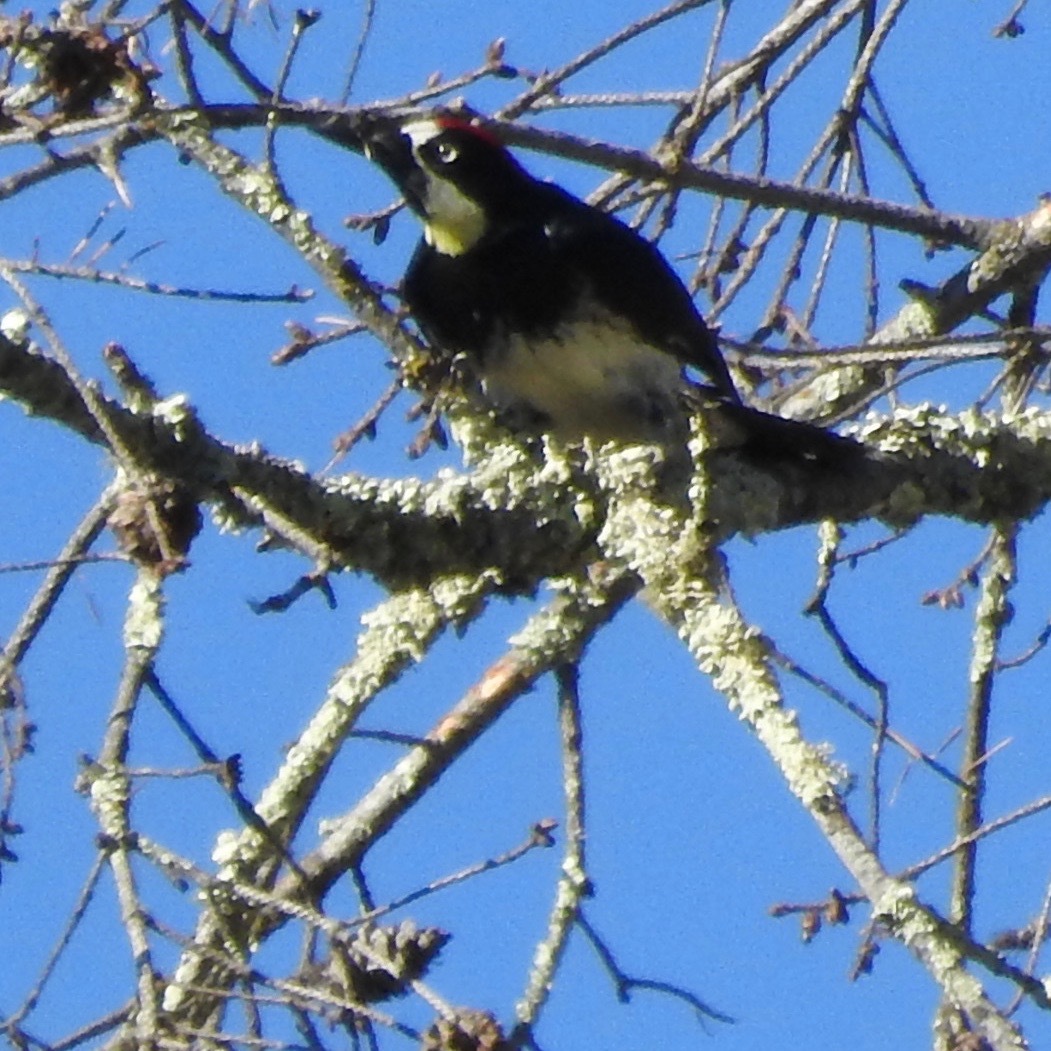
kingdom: Animalia
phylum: Chordata
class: Aves
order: Piciformes
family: Picidae
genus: Melanerpes
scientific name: Melanerpes formicivorus
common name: Acorn woodpecker
